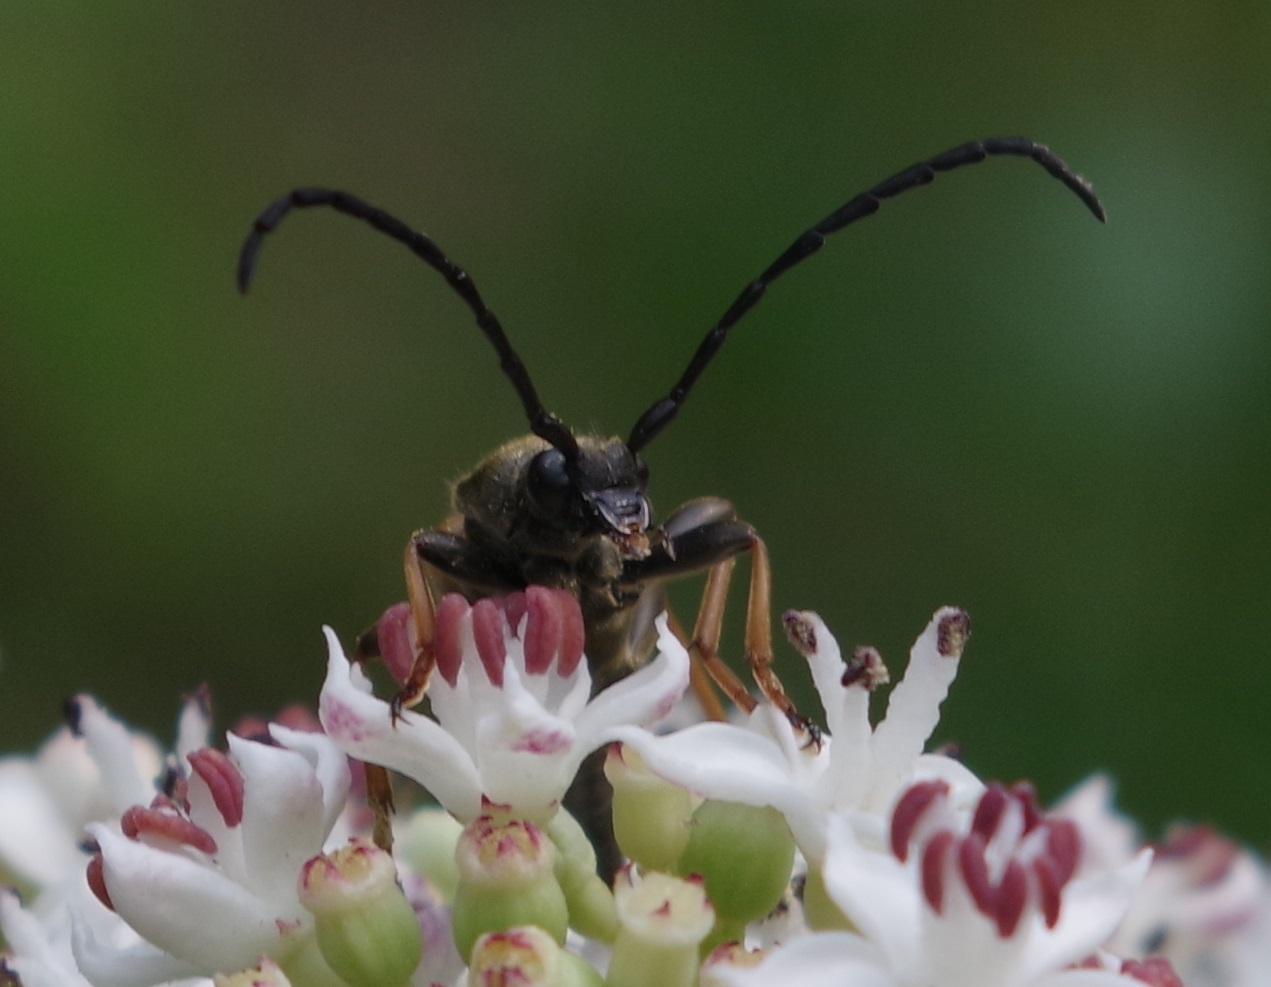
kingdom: Animalia
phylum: Arthropoda
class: Insecta
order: Coleoptera
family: Cerambycidae
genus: Stictoleptura
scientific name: Stictoleptura rubra
